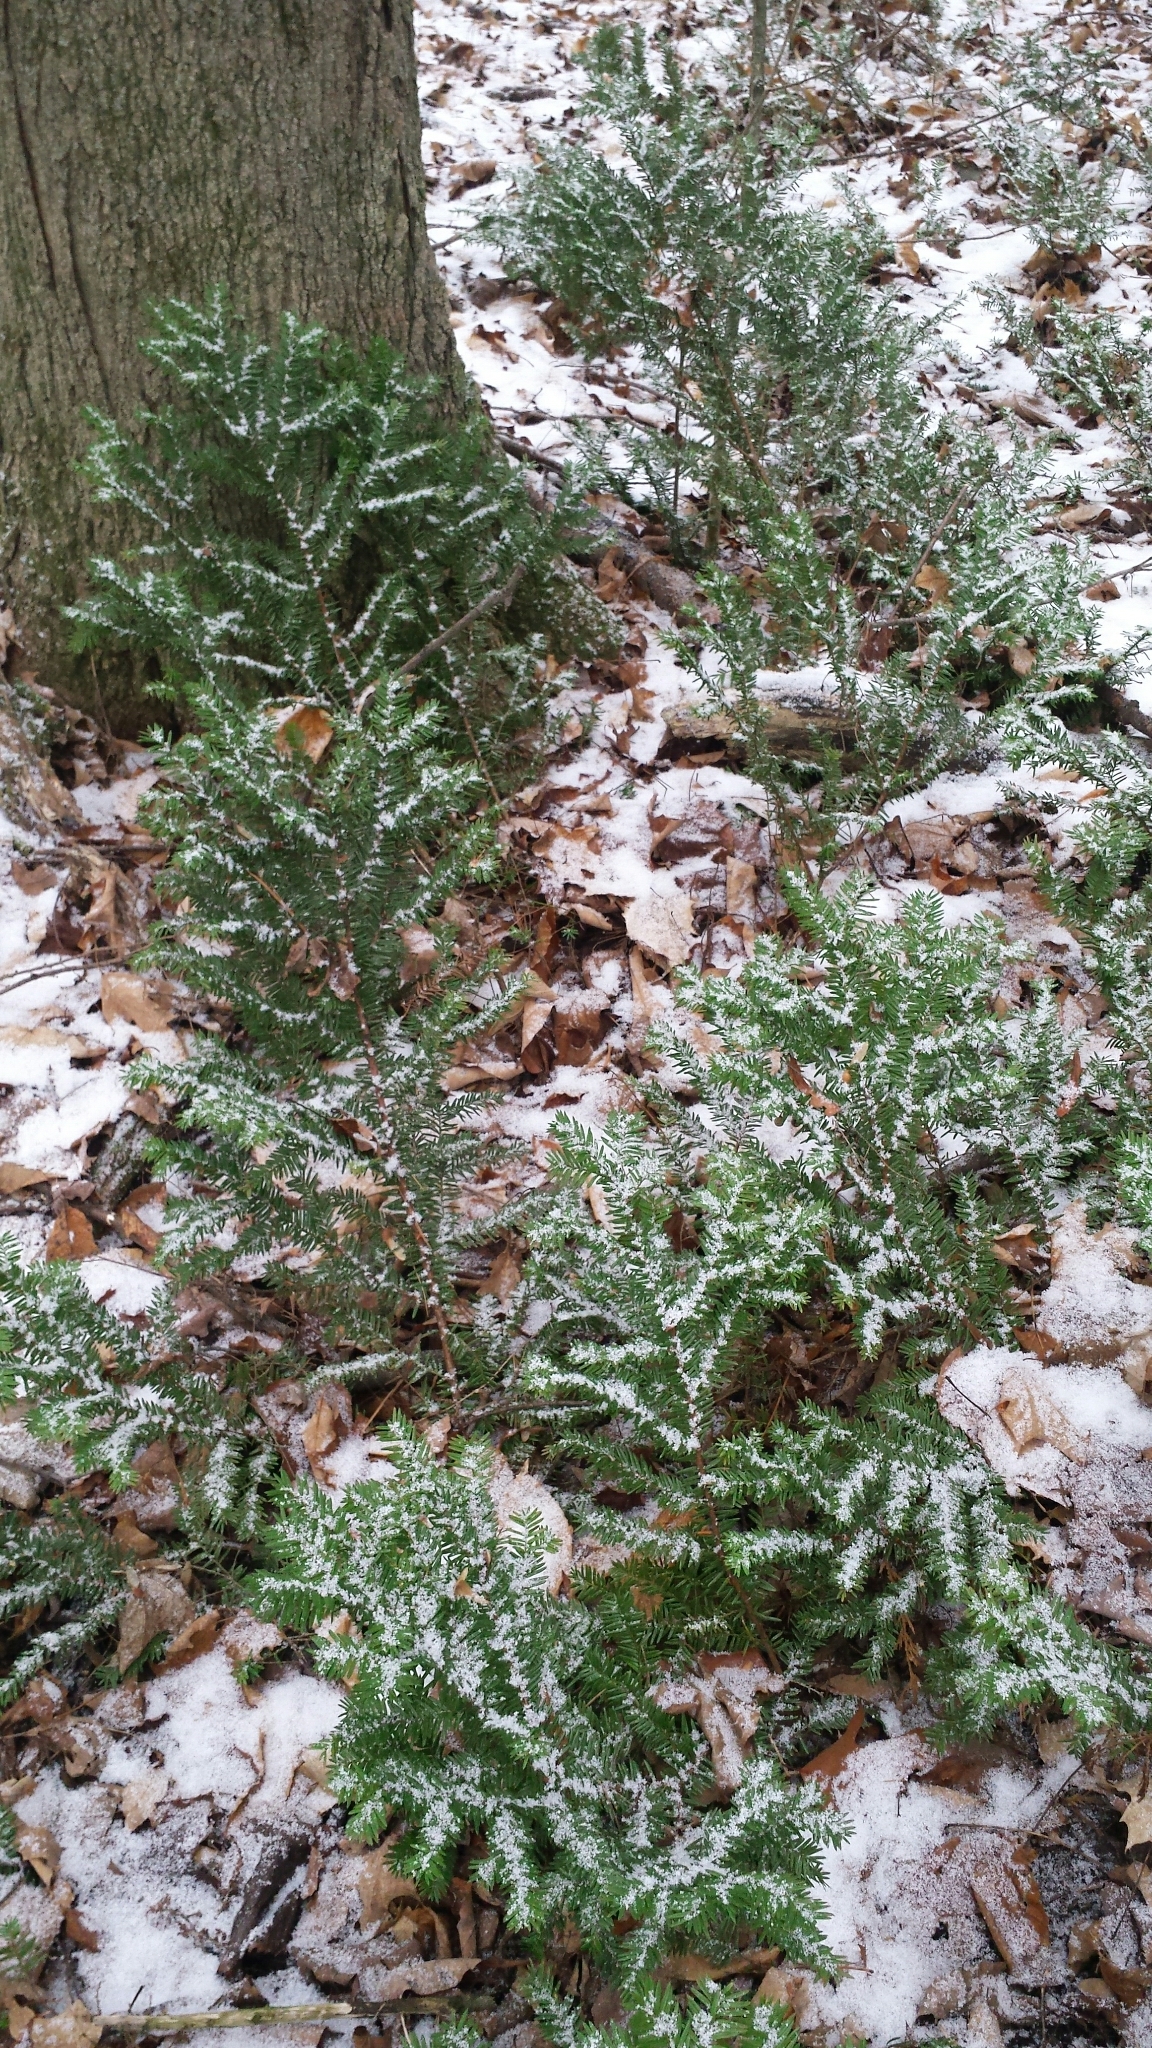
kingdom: Plantae
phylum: Tracheophyta
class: Pinopsida
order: Pinales
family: Taxaceae
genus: Taxus
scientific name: Taxus canadensis
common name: American yew
